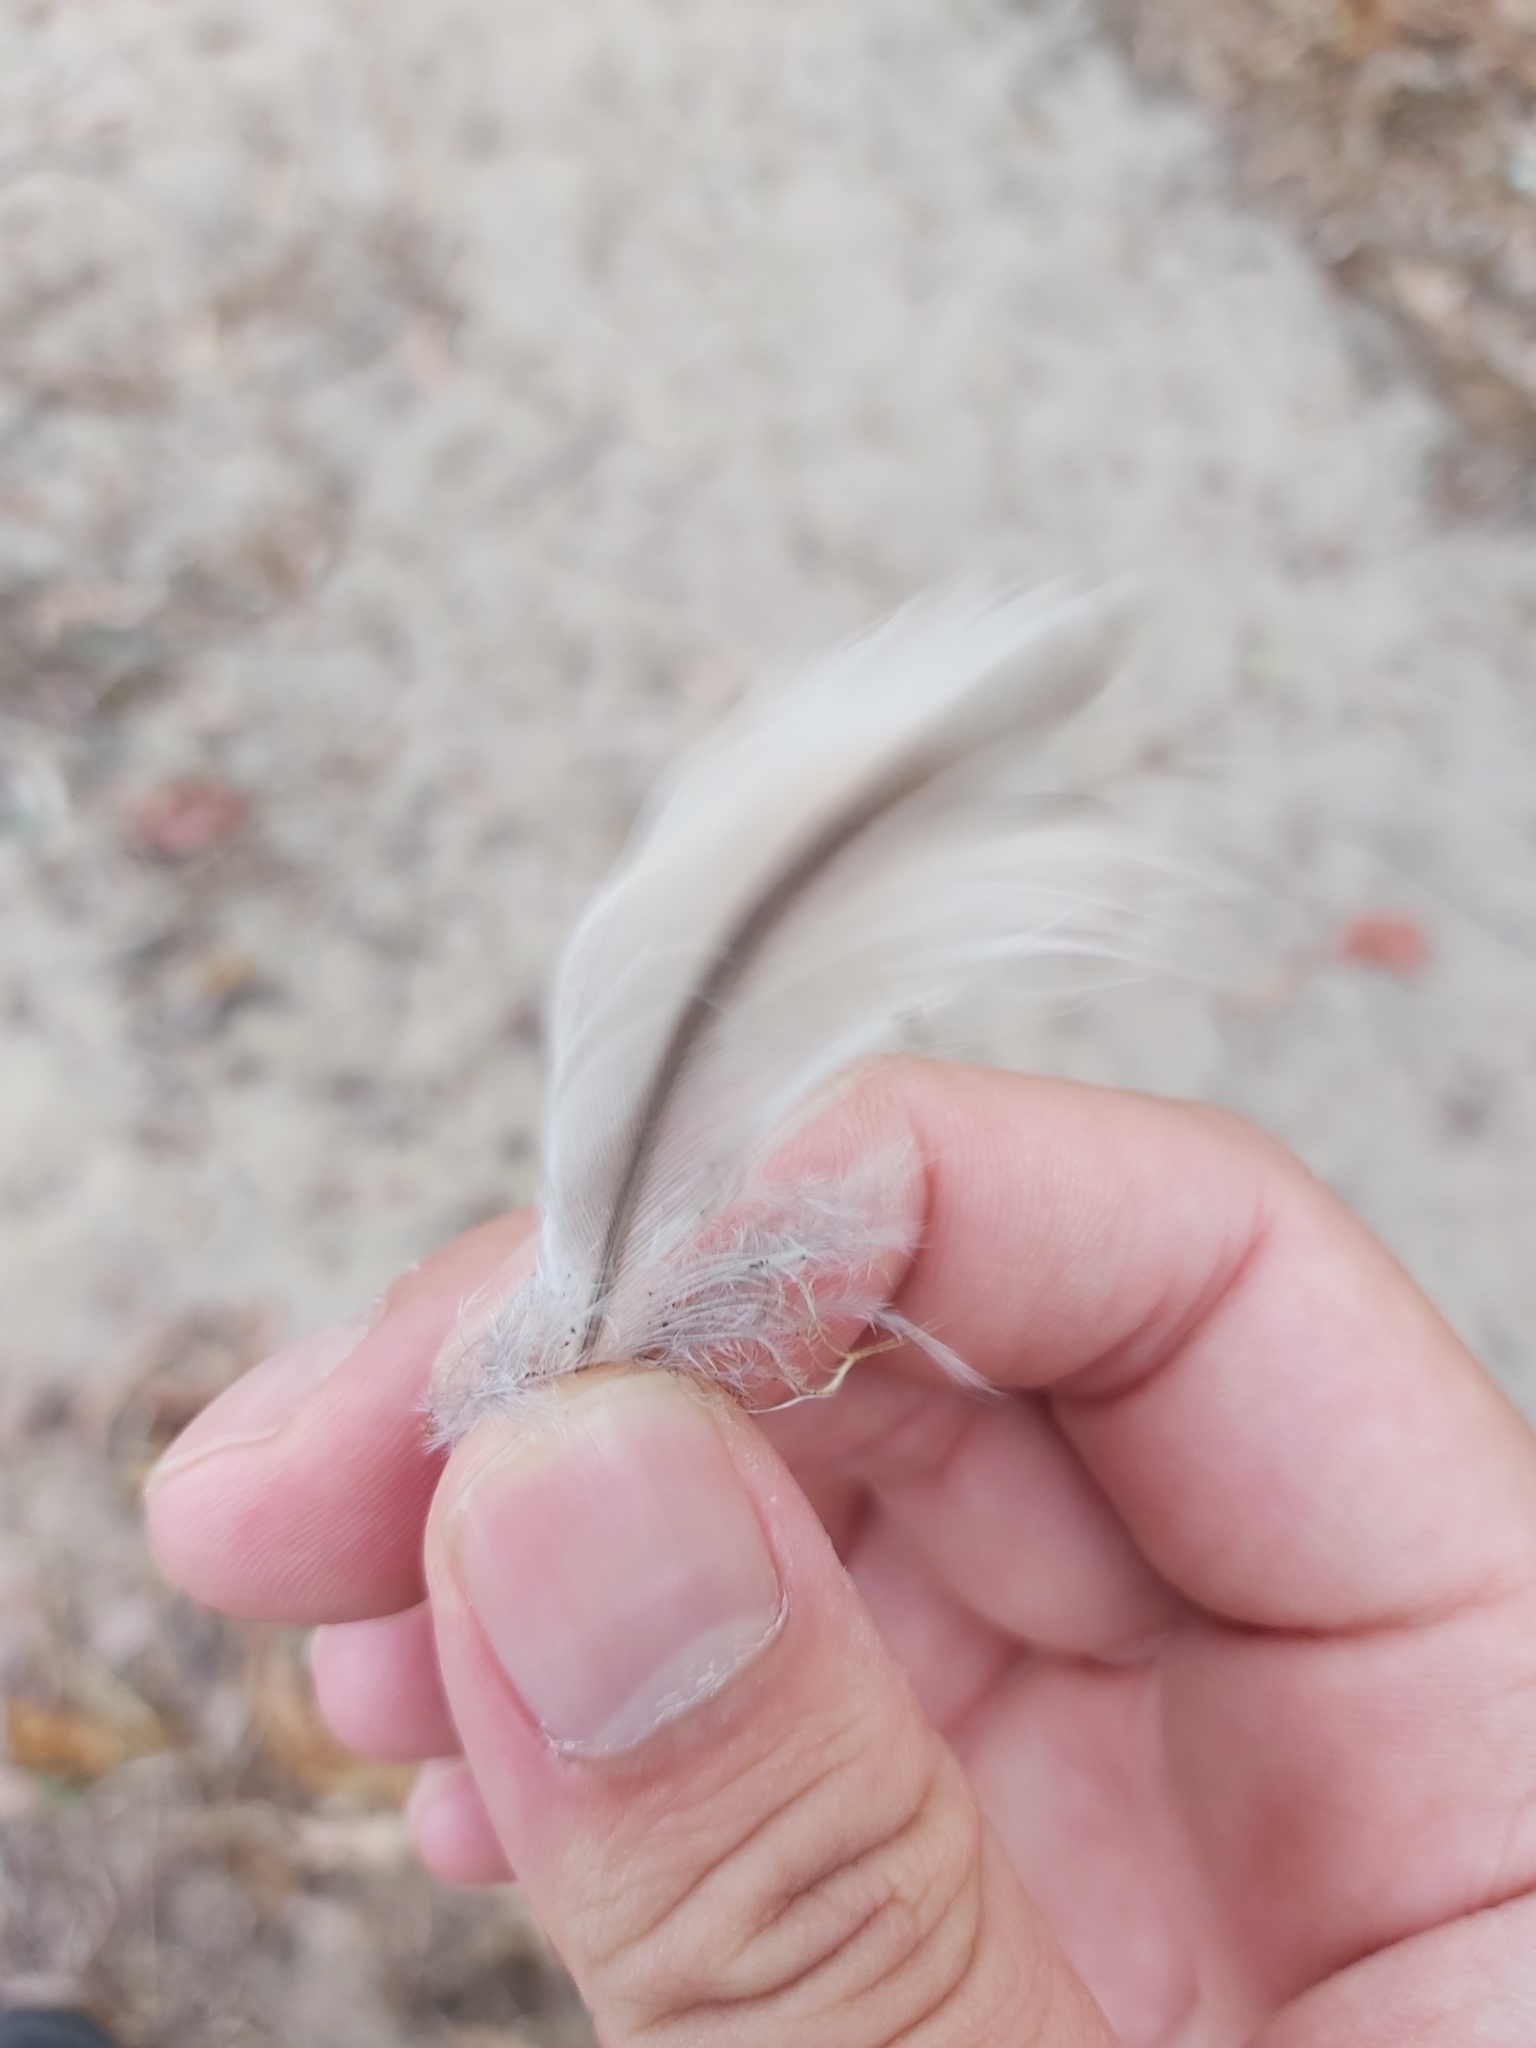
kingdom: Animalia
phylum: Chordata
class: Aves
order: Charadriiformes
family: Burhinidae
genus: Burhinus
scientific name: Burhinus grallarius
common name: Bush stone-curlew
